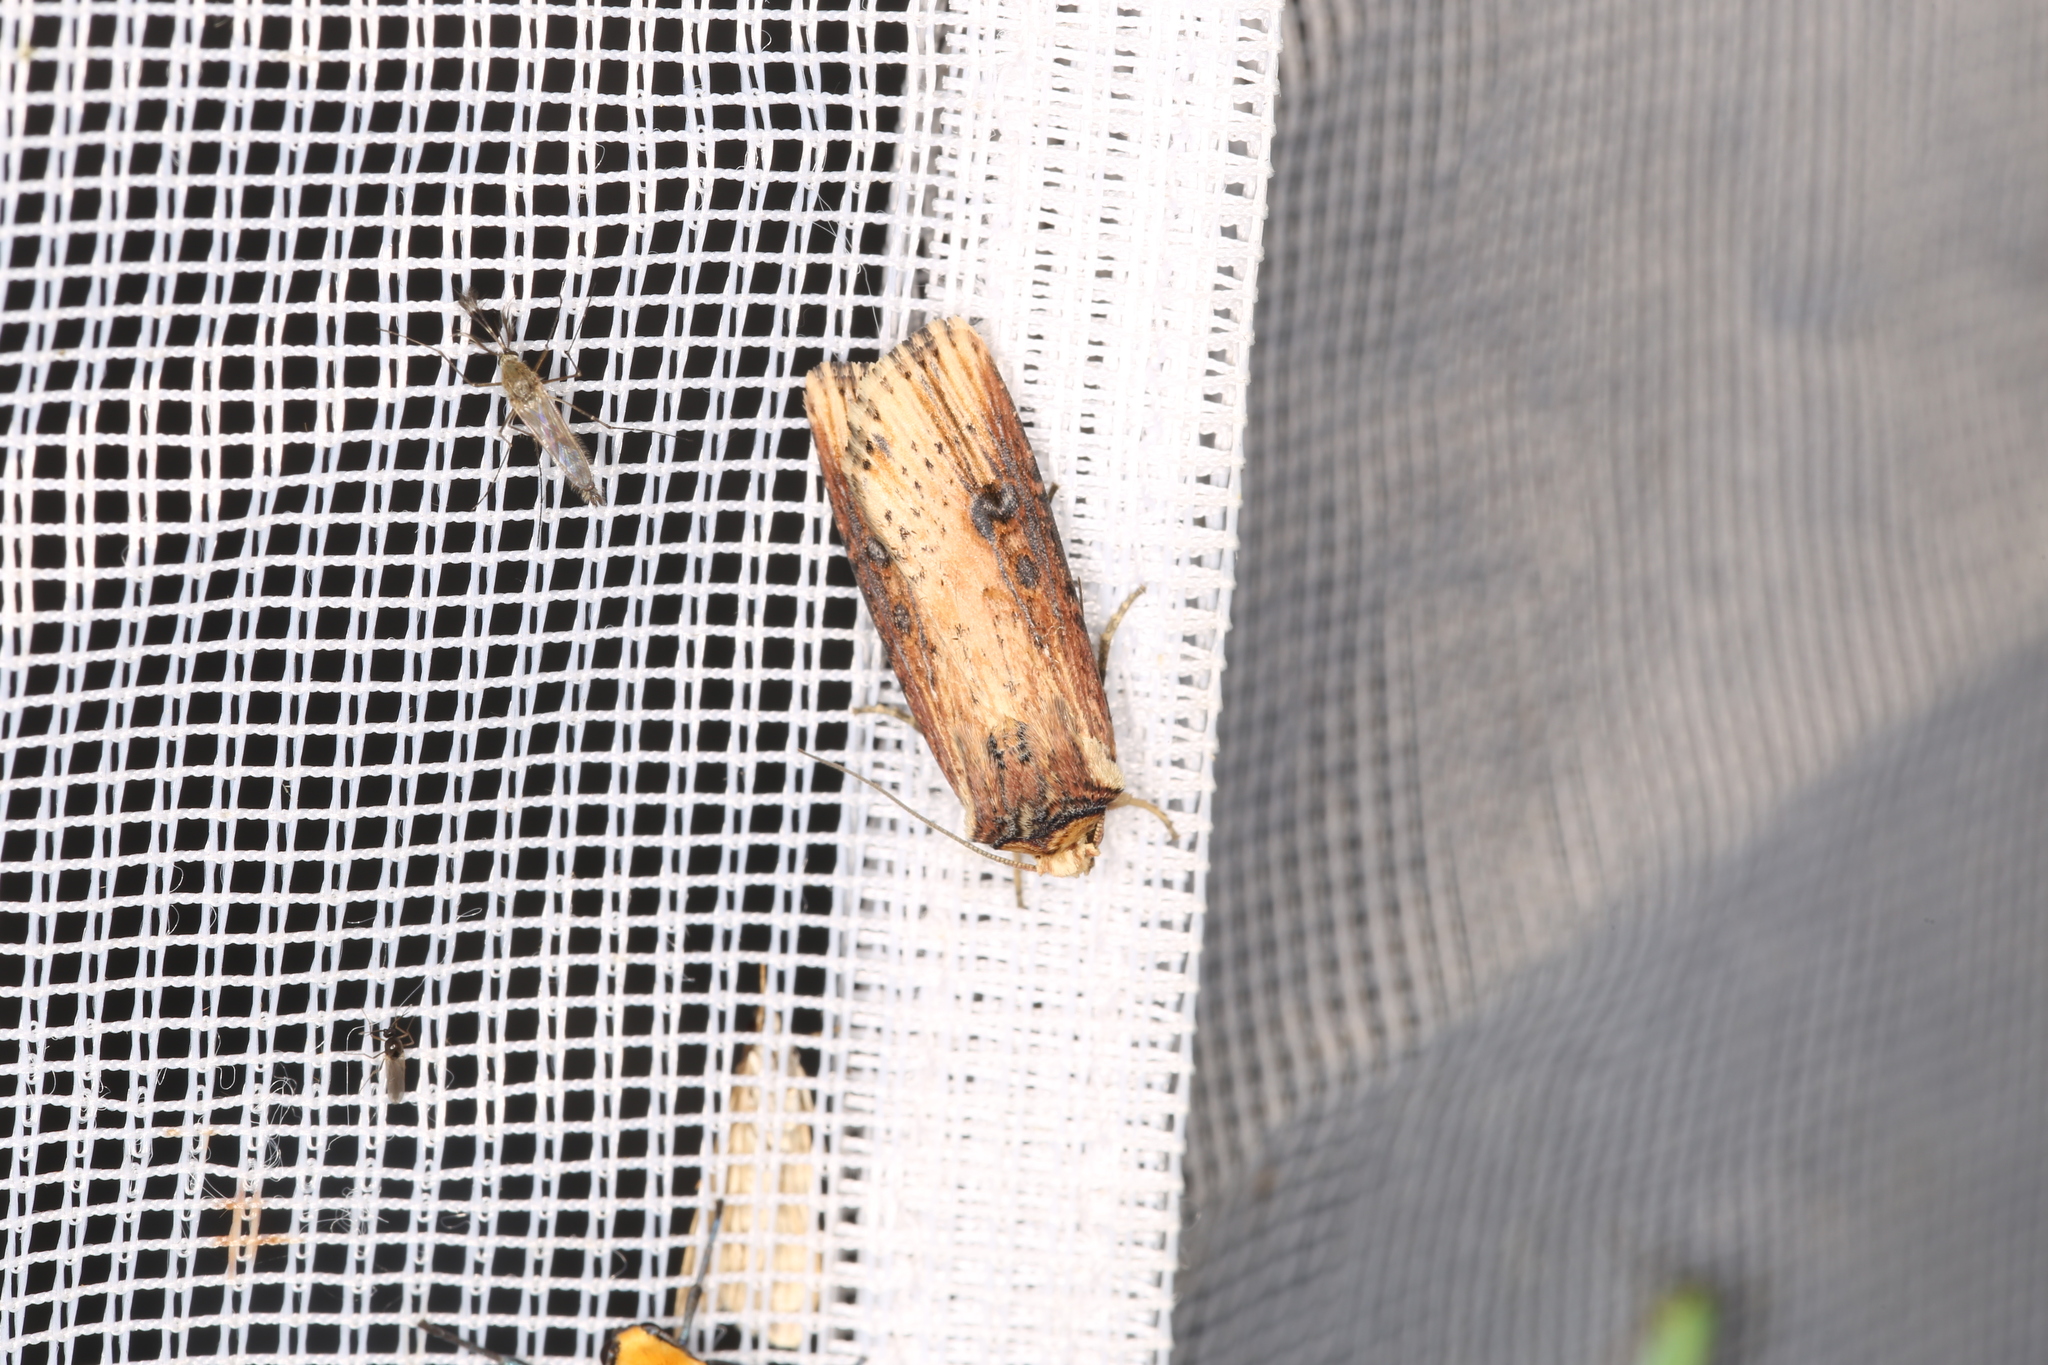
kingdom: Animalia
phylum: Arthropoda
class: Insecta
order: Lepidoptera
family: Noctuidae
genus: Axylia
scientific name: Axylia putris
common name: Flame
